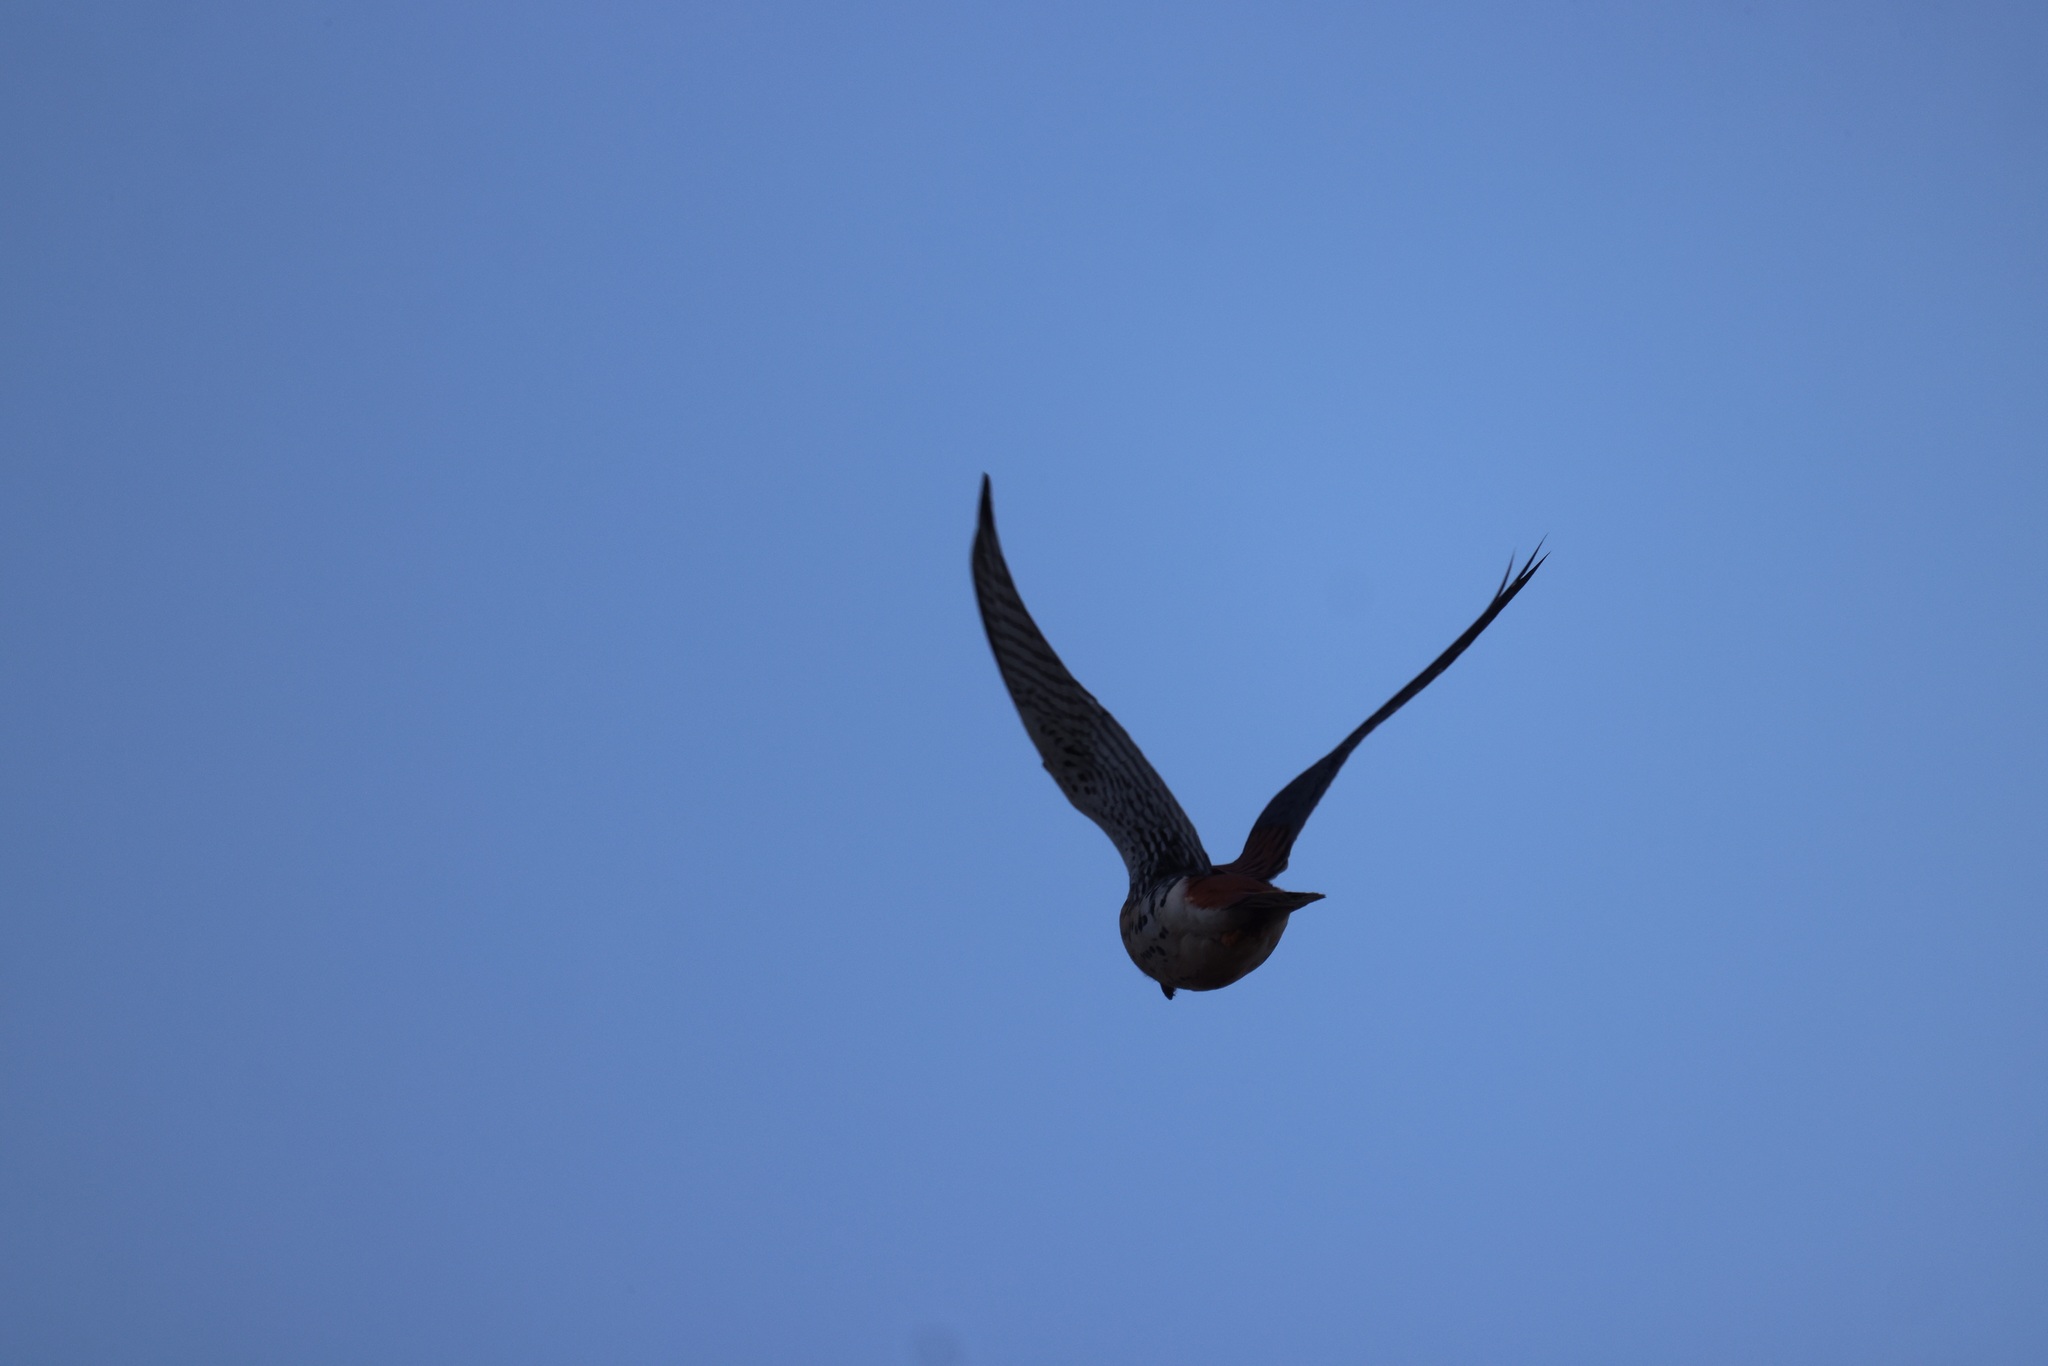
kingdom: Animalia
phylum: Chordata
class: Aves
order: Falconiformes
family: Falconidae
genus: Falco
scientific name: Falco sparverius
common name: American kestrel
